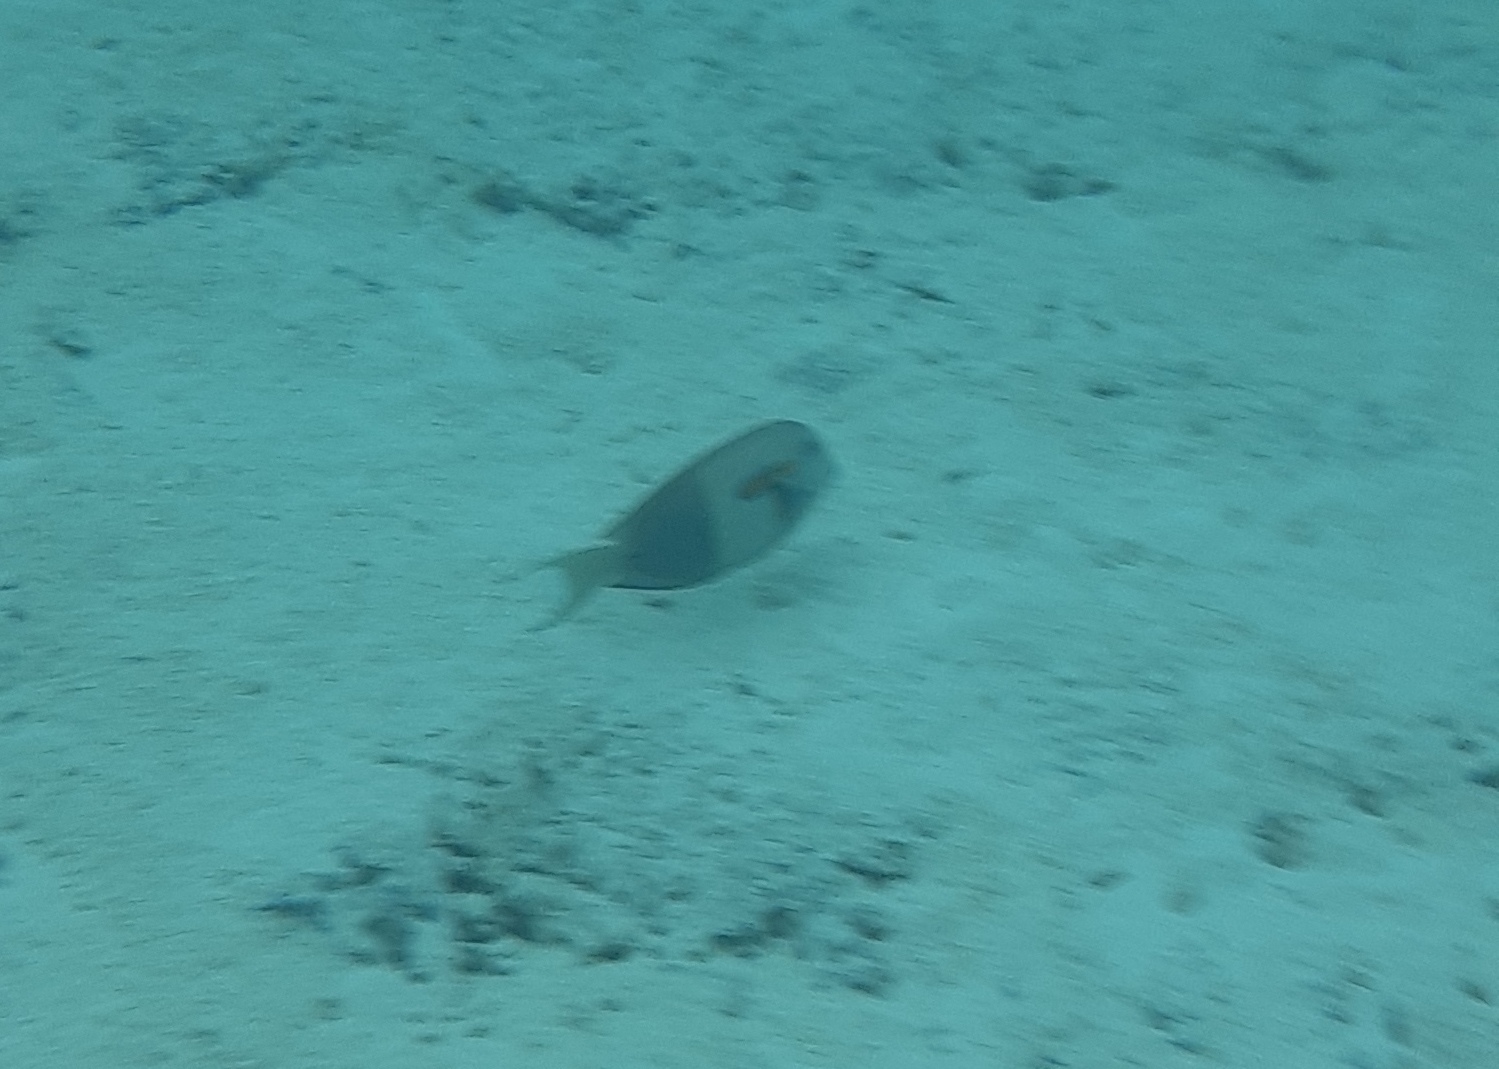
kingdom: Animalia
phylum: Chordata
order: Perciformes
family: Acanthuridae
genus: Acanthurus
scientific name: Acanthurus olivaceus
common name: Gendarme fish
